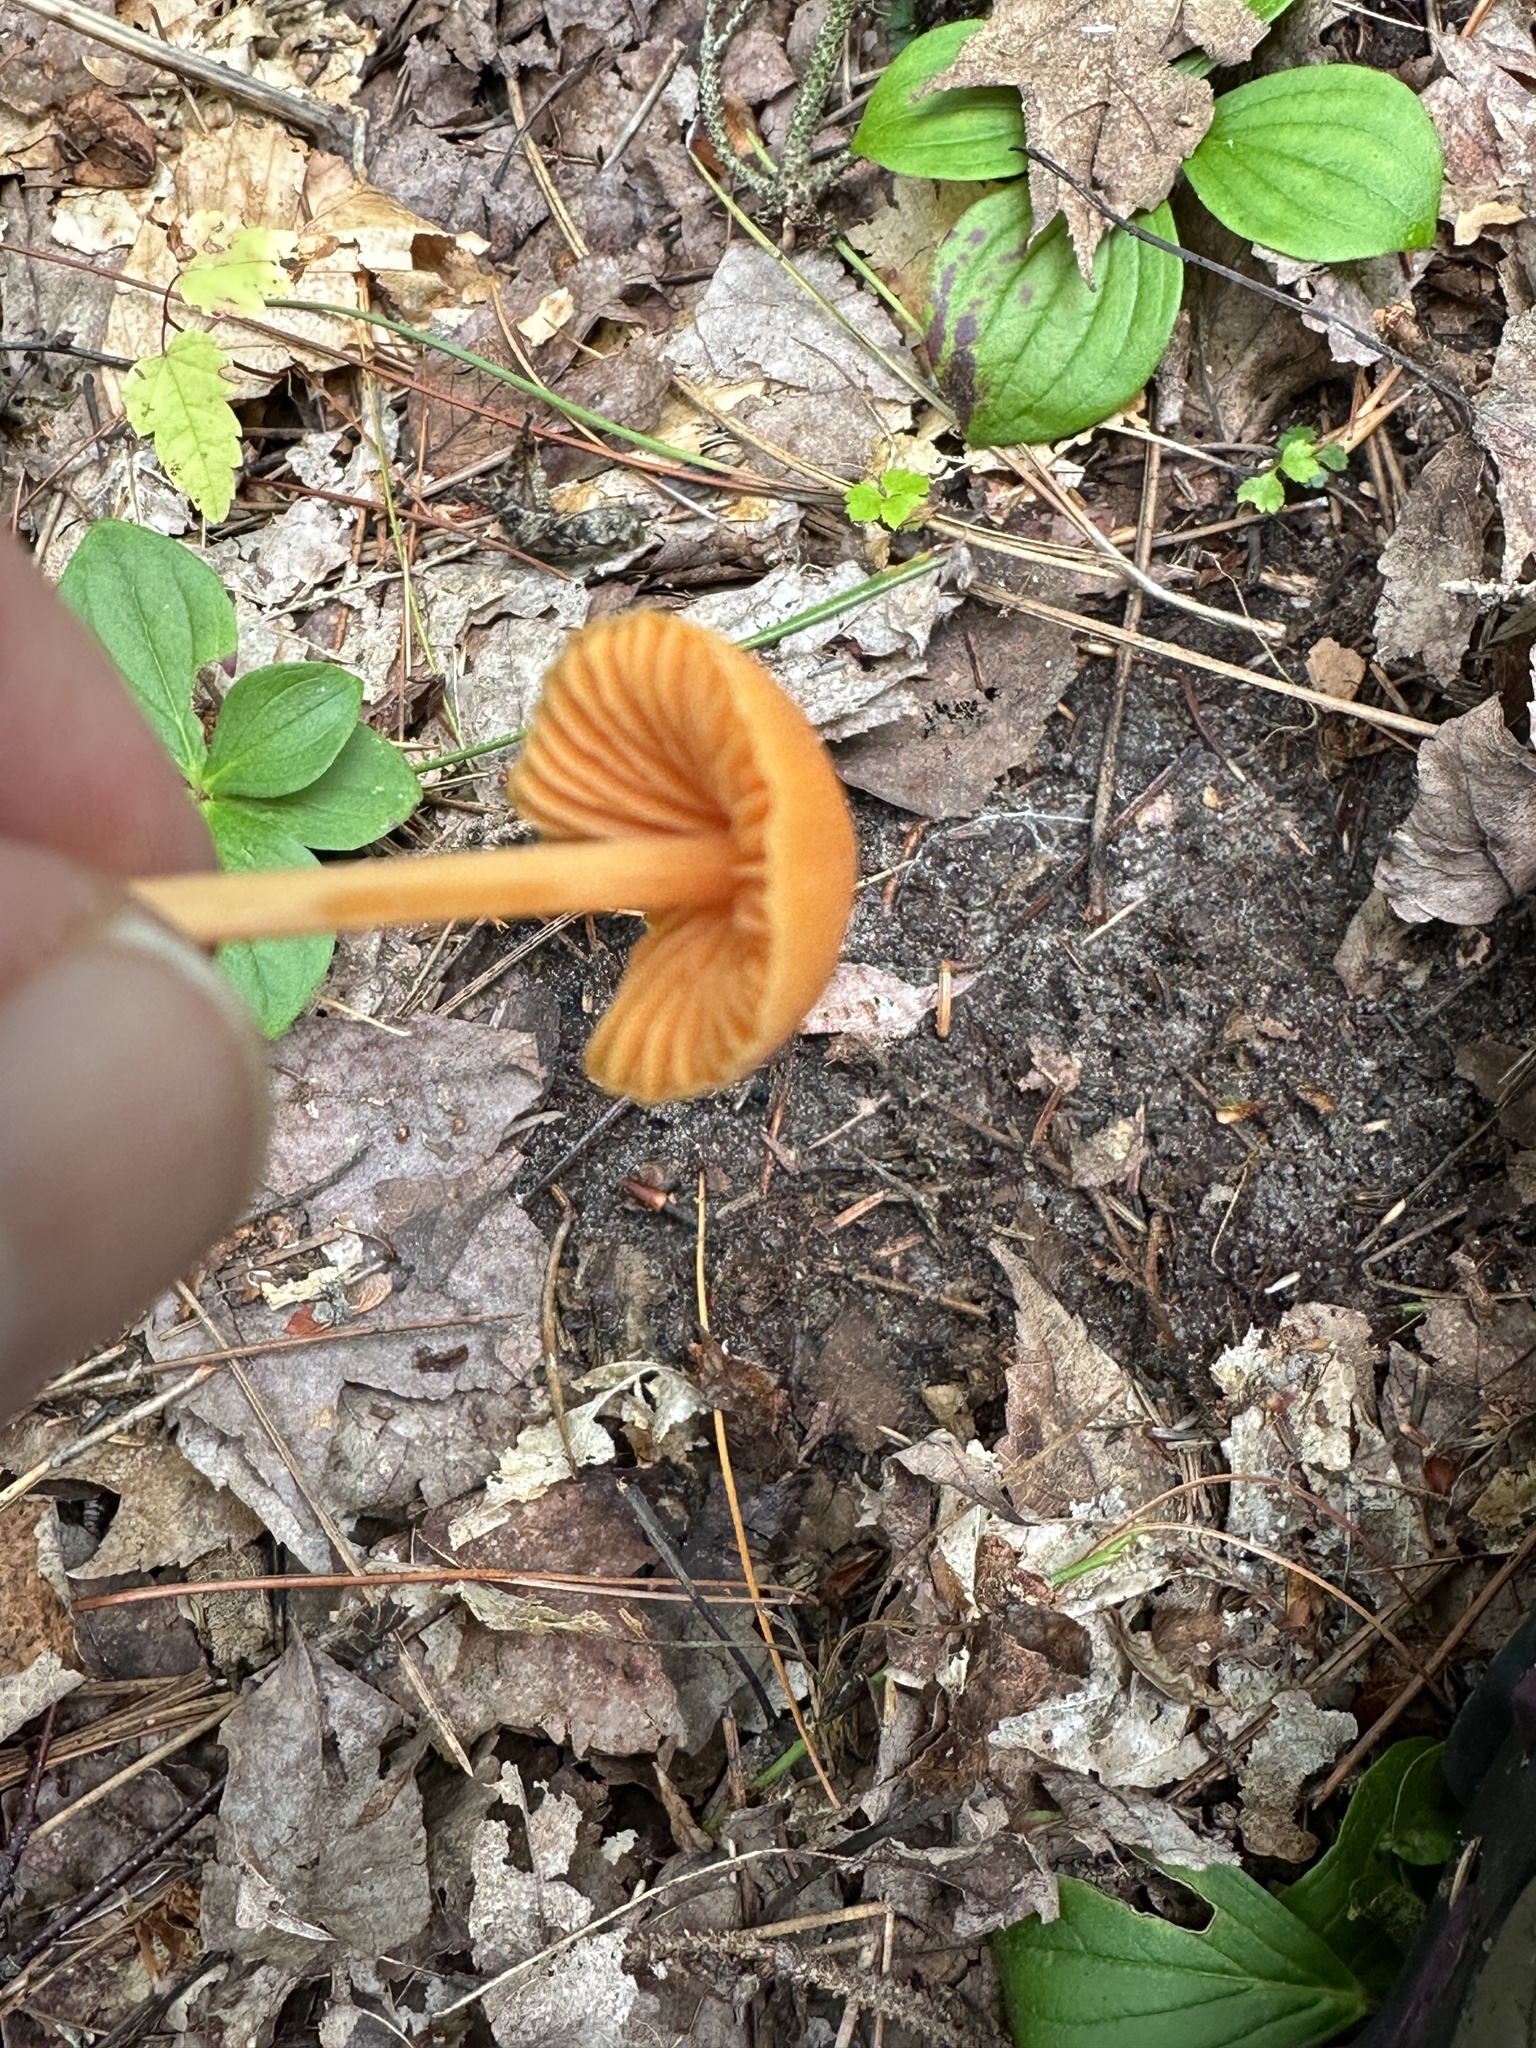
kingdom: Fungi
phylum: Basidiomycota
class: Agaricomycetes
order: Agaricales
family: Entolomataceae
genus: Entoloma
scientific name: Entoloma quadratum
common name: Salmon pinkgill
